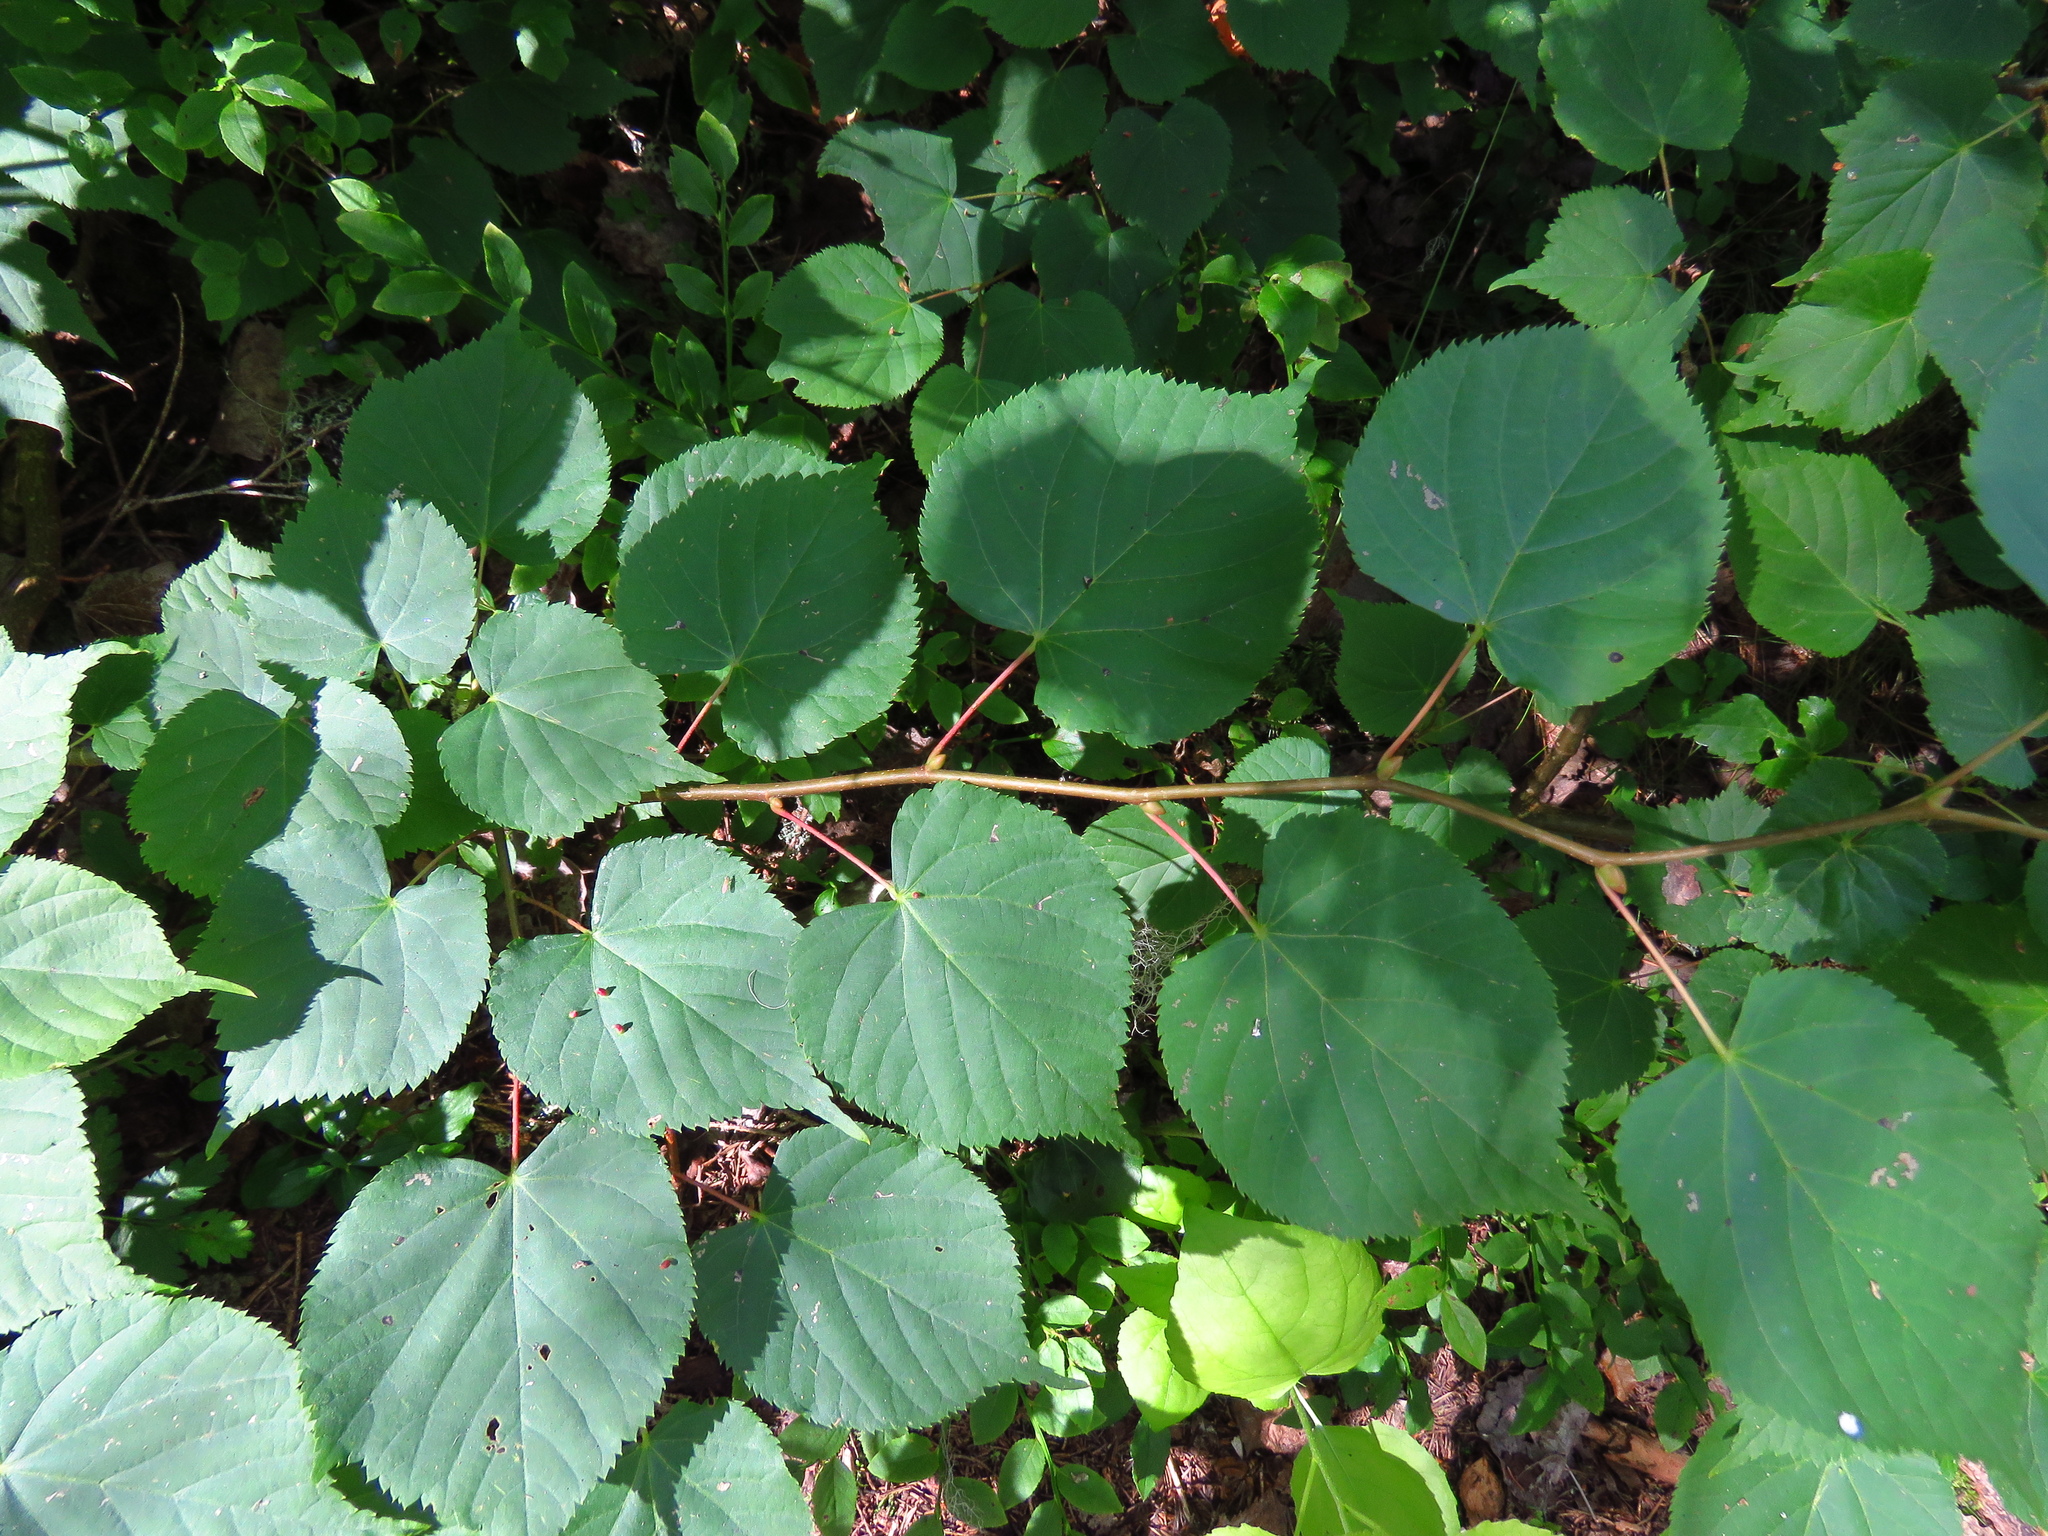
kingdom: Plantae
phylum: Tracheophyta
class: Magnoliopsida
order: Malvales
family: Malvaceae
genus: Tilia
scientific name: Tilia cordata
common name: Small-leaved lime
